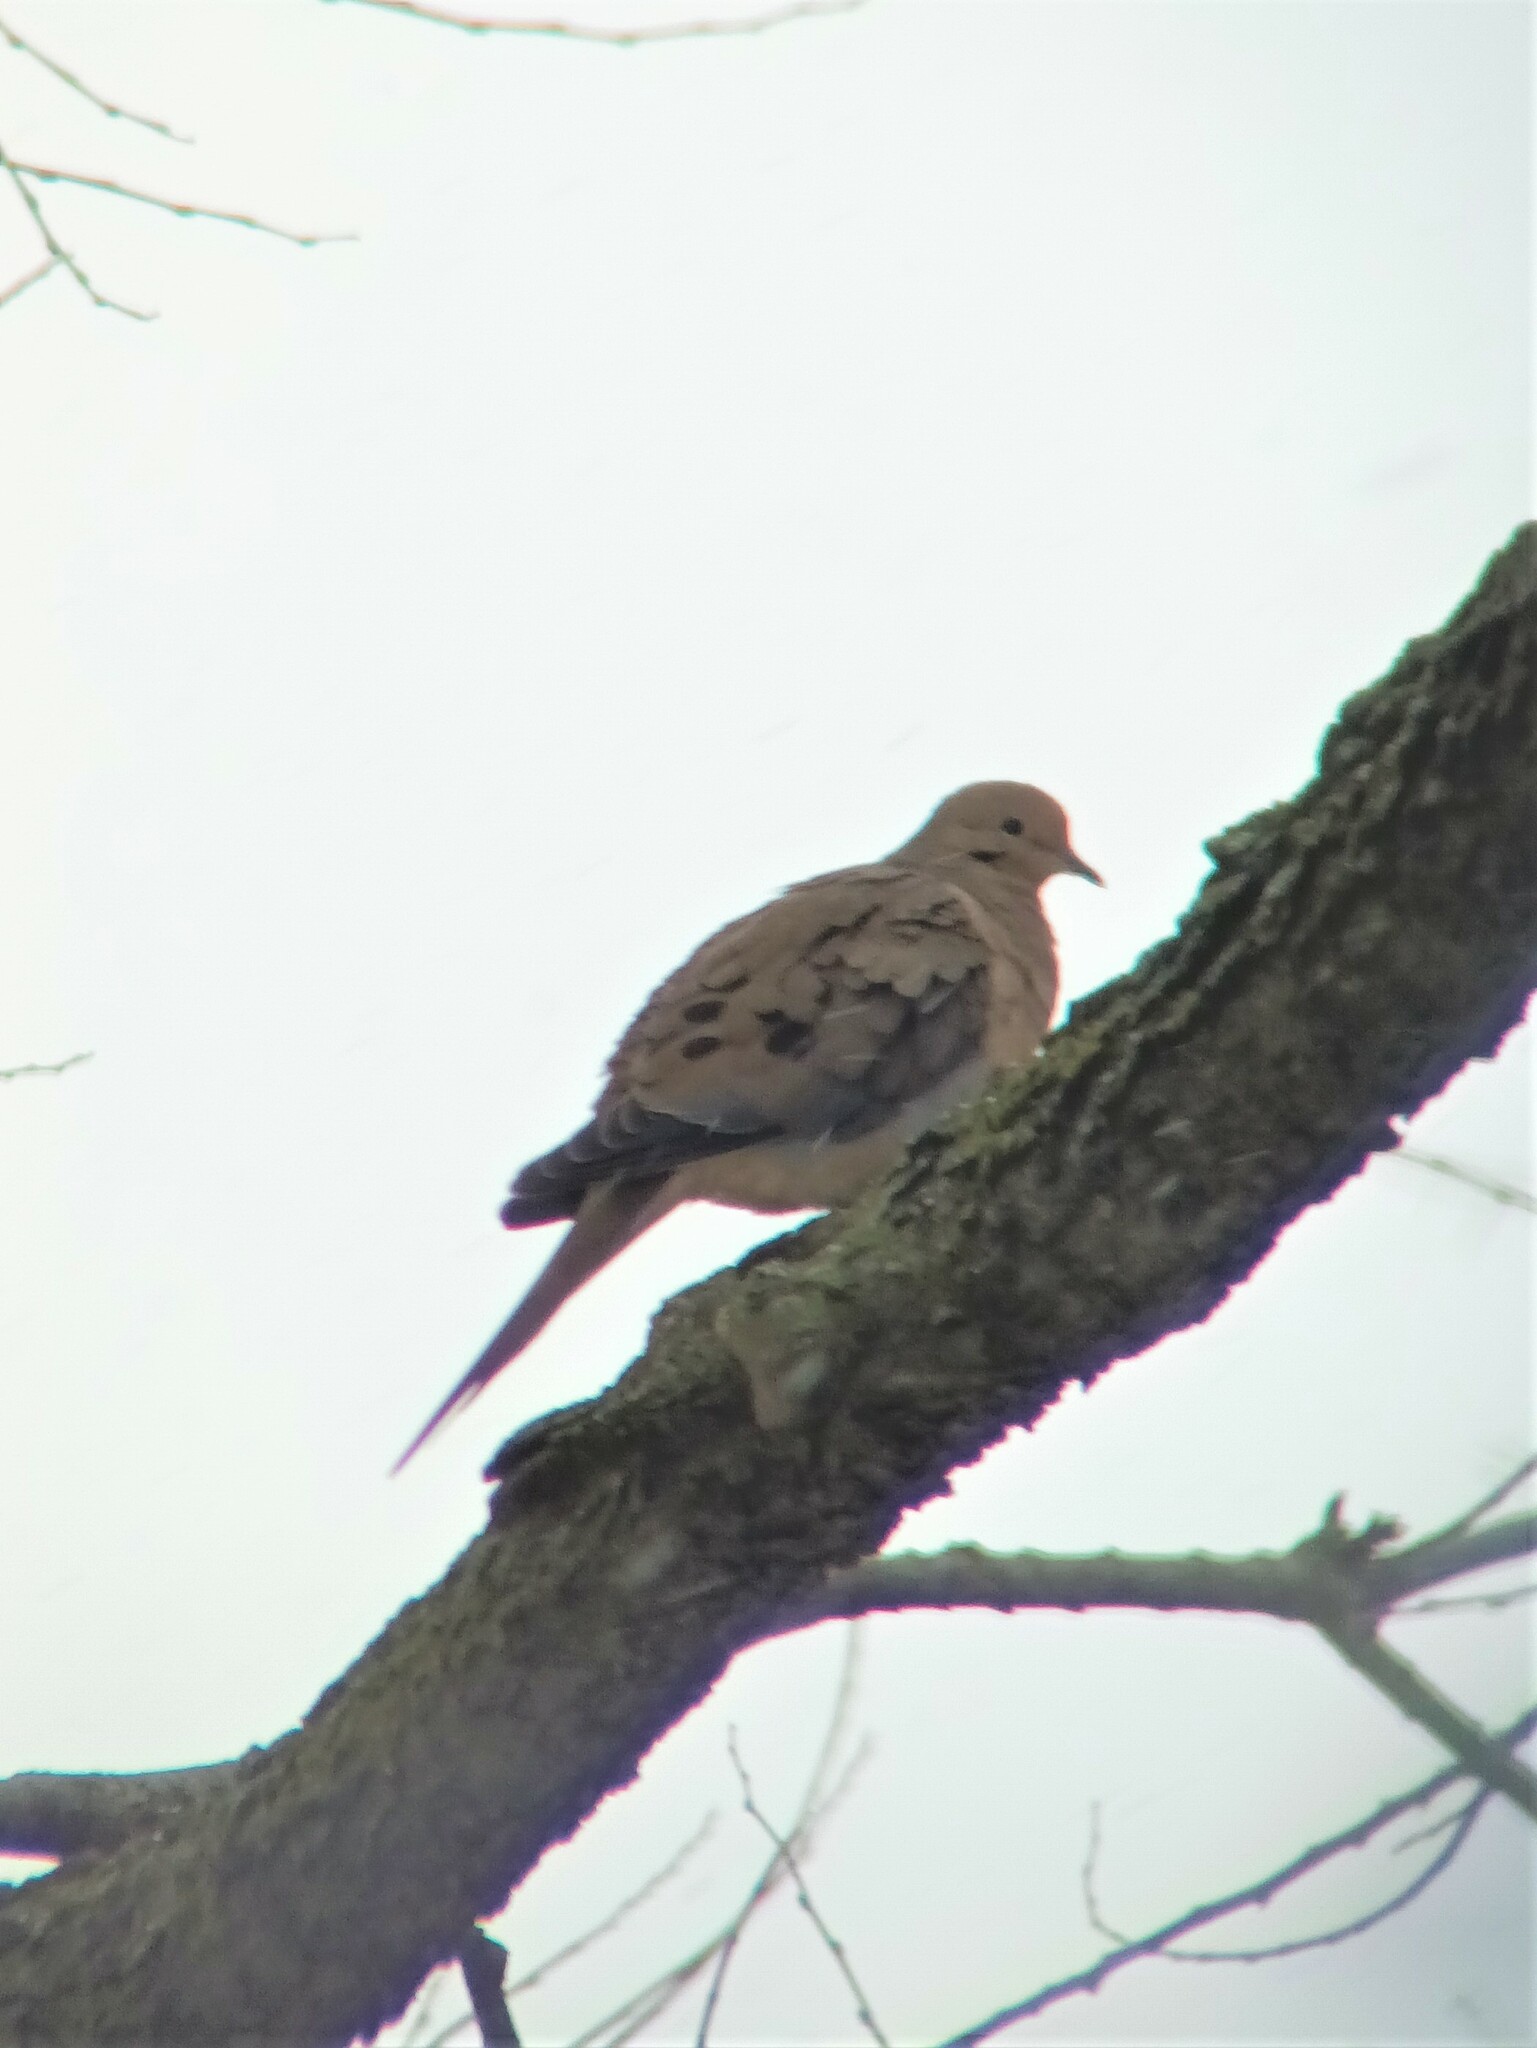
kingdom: Animalia
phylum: Chordata
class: Aves
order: Columbiformes
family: Columbidae
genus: Zenaida
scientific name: Zenaida macroura
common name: Mourning dove
